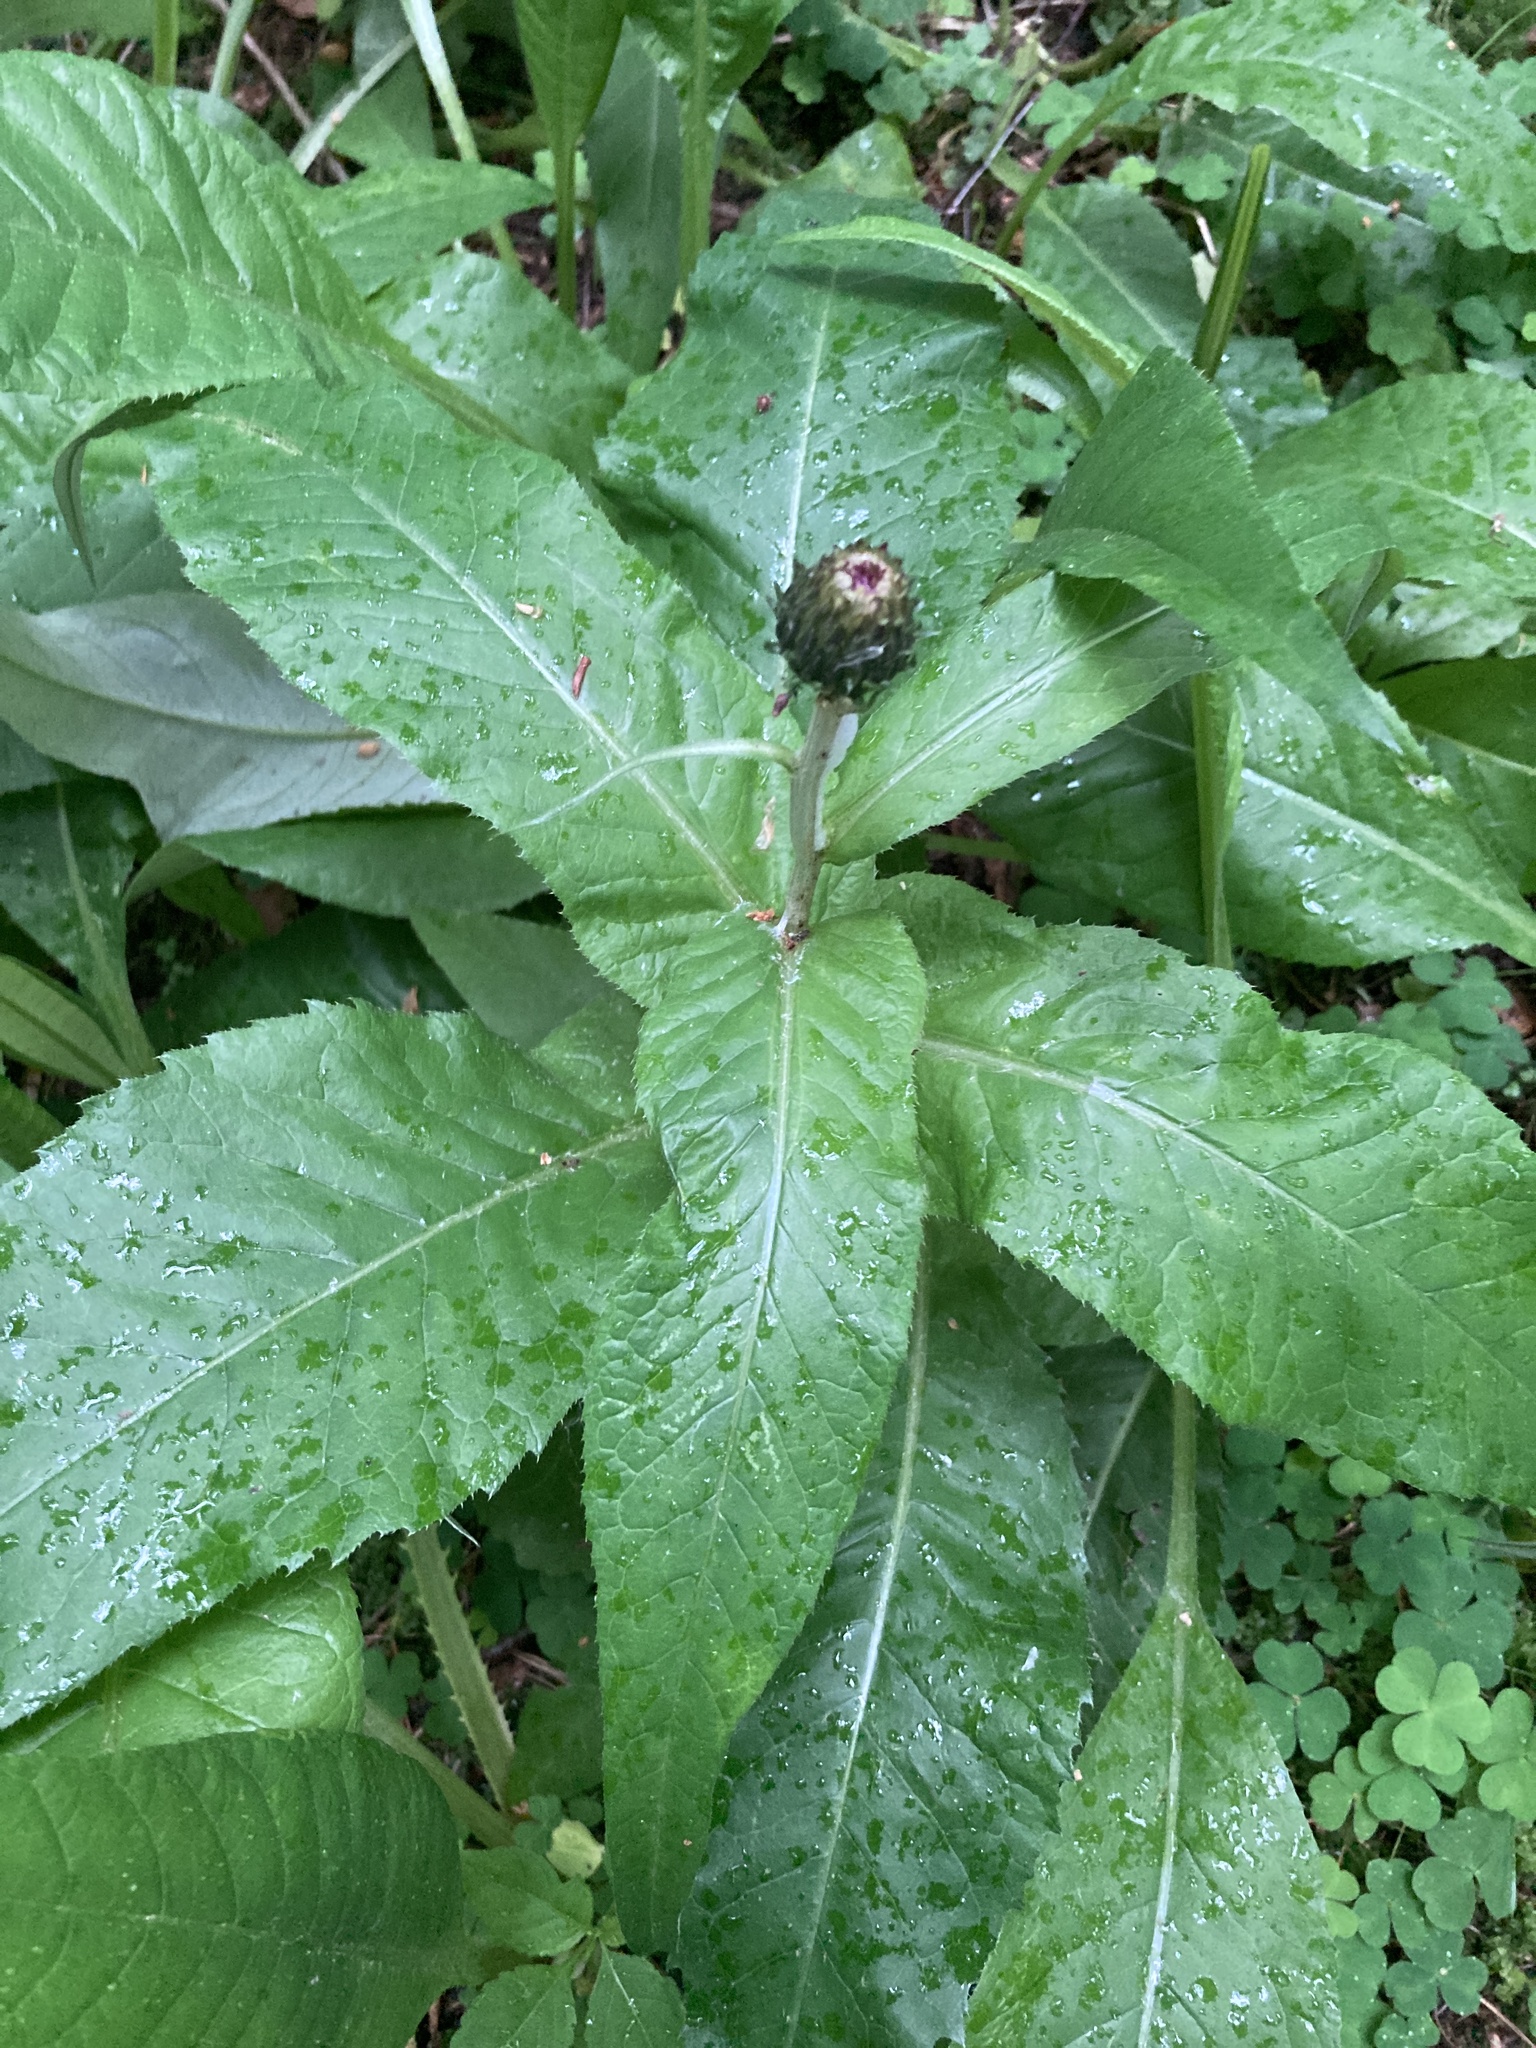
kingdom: Plantae
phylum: Tracheophyta
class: Magnoliopsida
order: Asterales
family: Asteraceae
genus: Cirsium
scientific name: Cirsium heterophyllum
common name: Melancholy thistle
